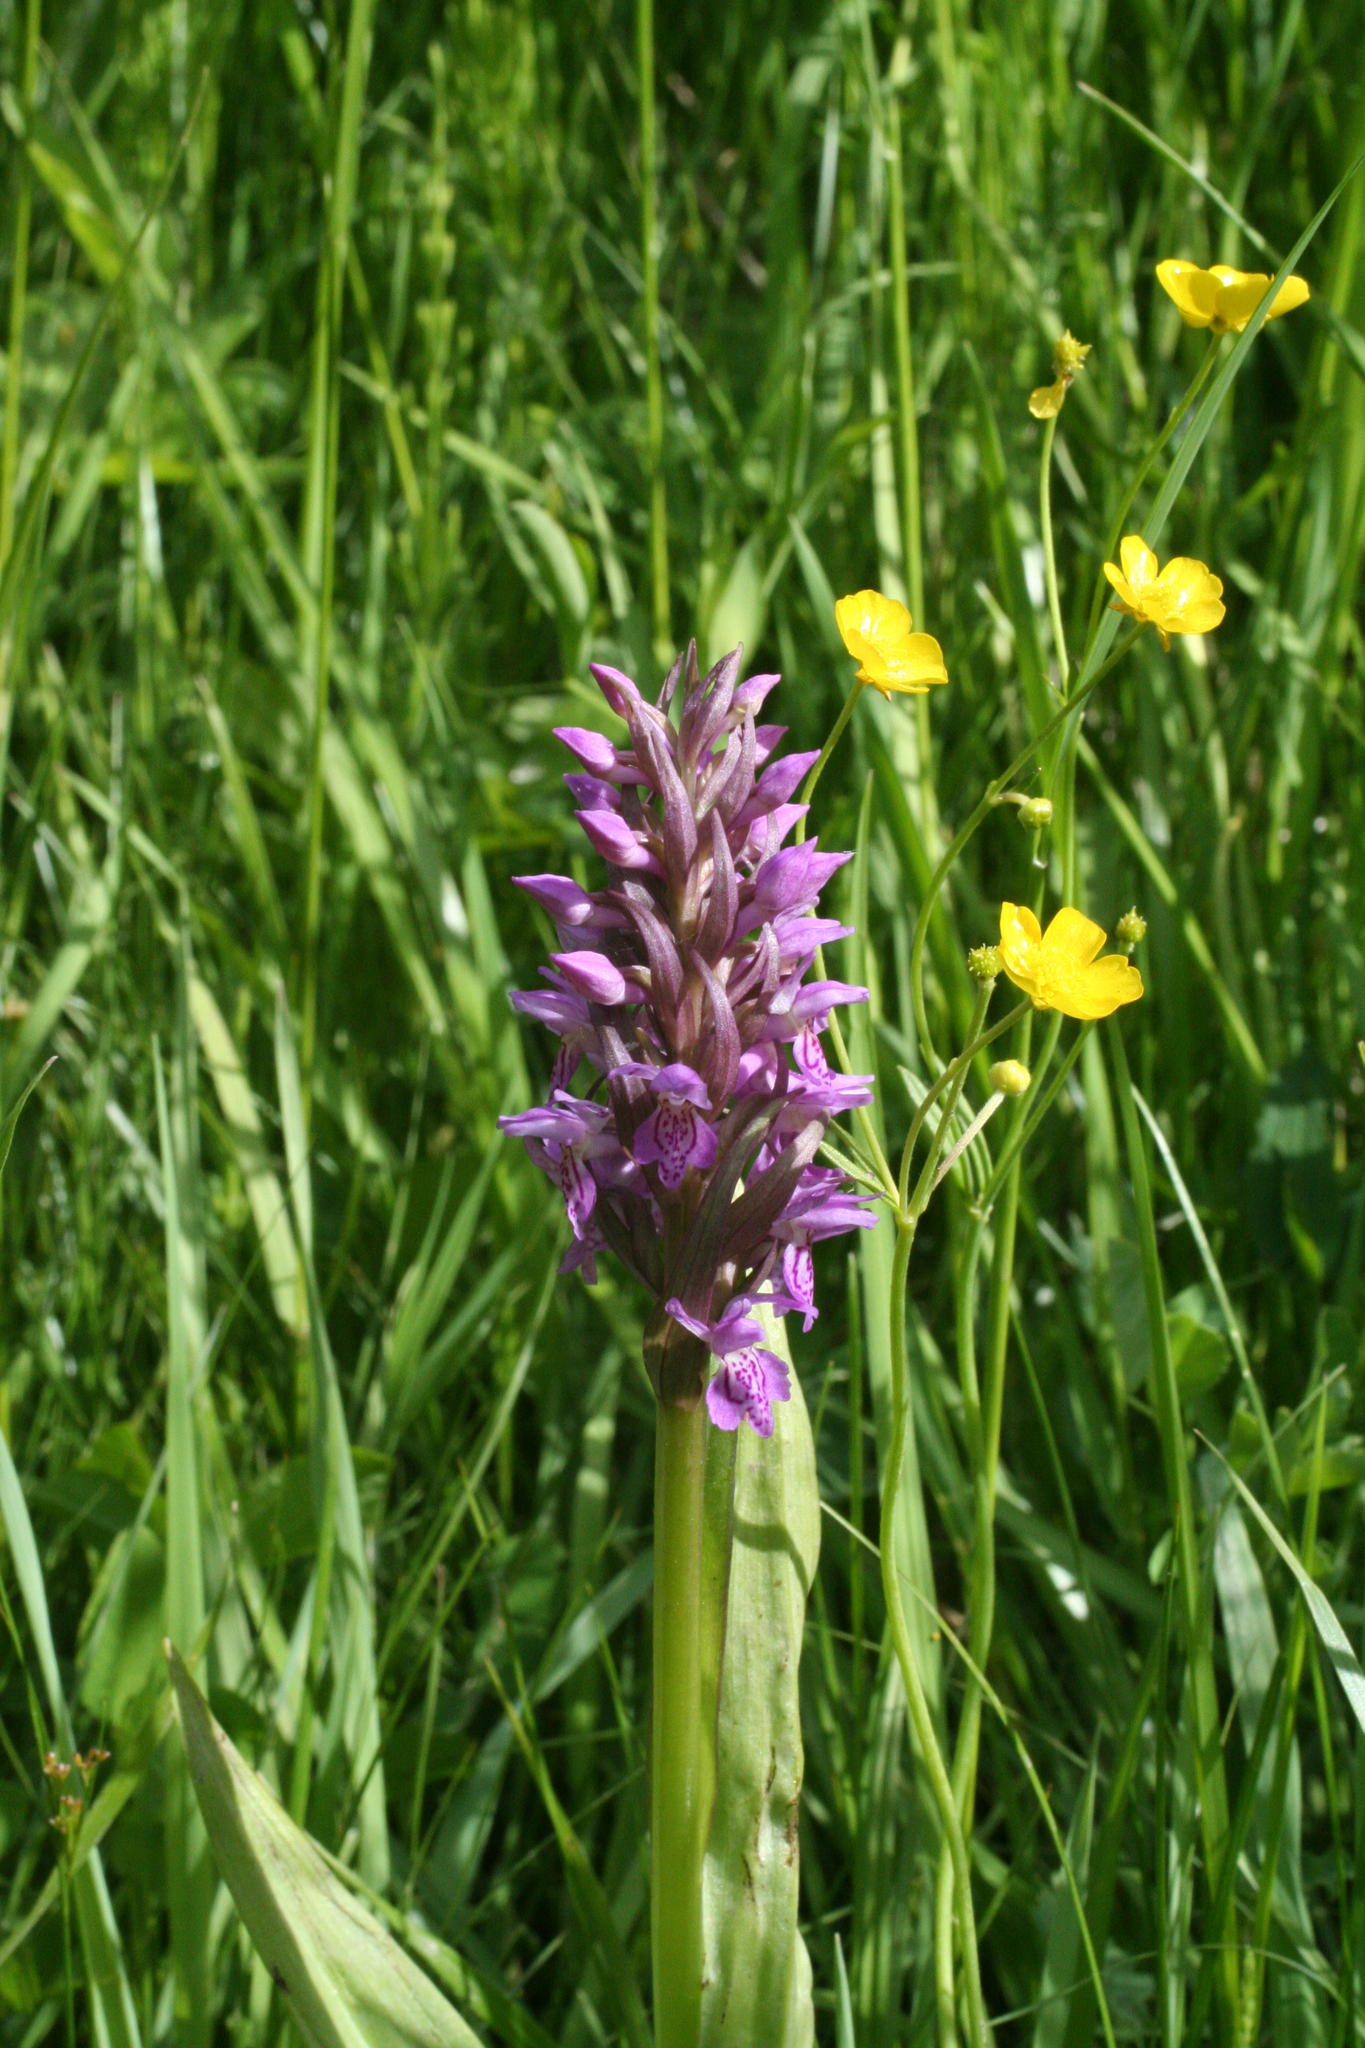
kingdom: Plantae
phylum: Tracheophyta
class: Liliopsida
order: Asparagales
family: Orchidaceae
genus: Dactylorhiza
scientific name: Dactylorhiza incarnata
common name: Early marsh-orchid
